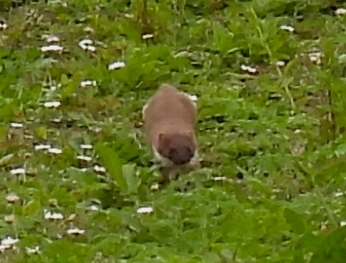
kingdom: Animalia
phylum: Chordata
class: Mammalia
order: Carnivora
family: Mustelidae
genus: Mustela
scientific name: Mustela nivalis
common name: Least weasel
